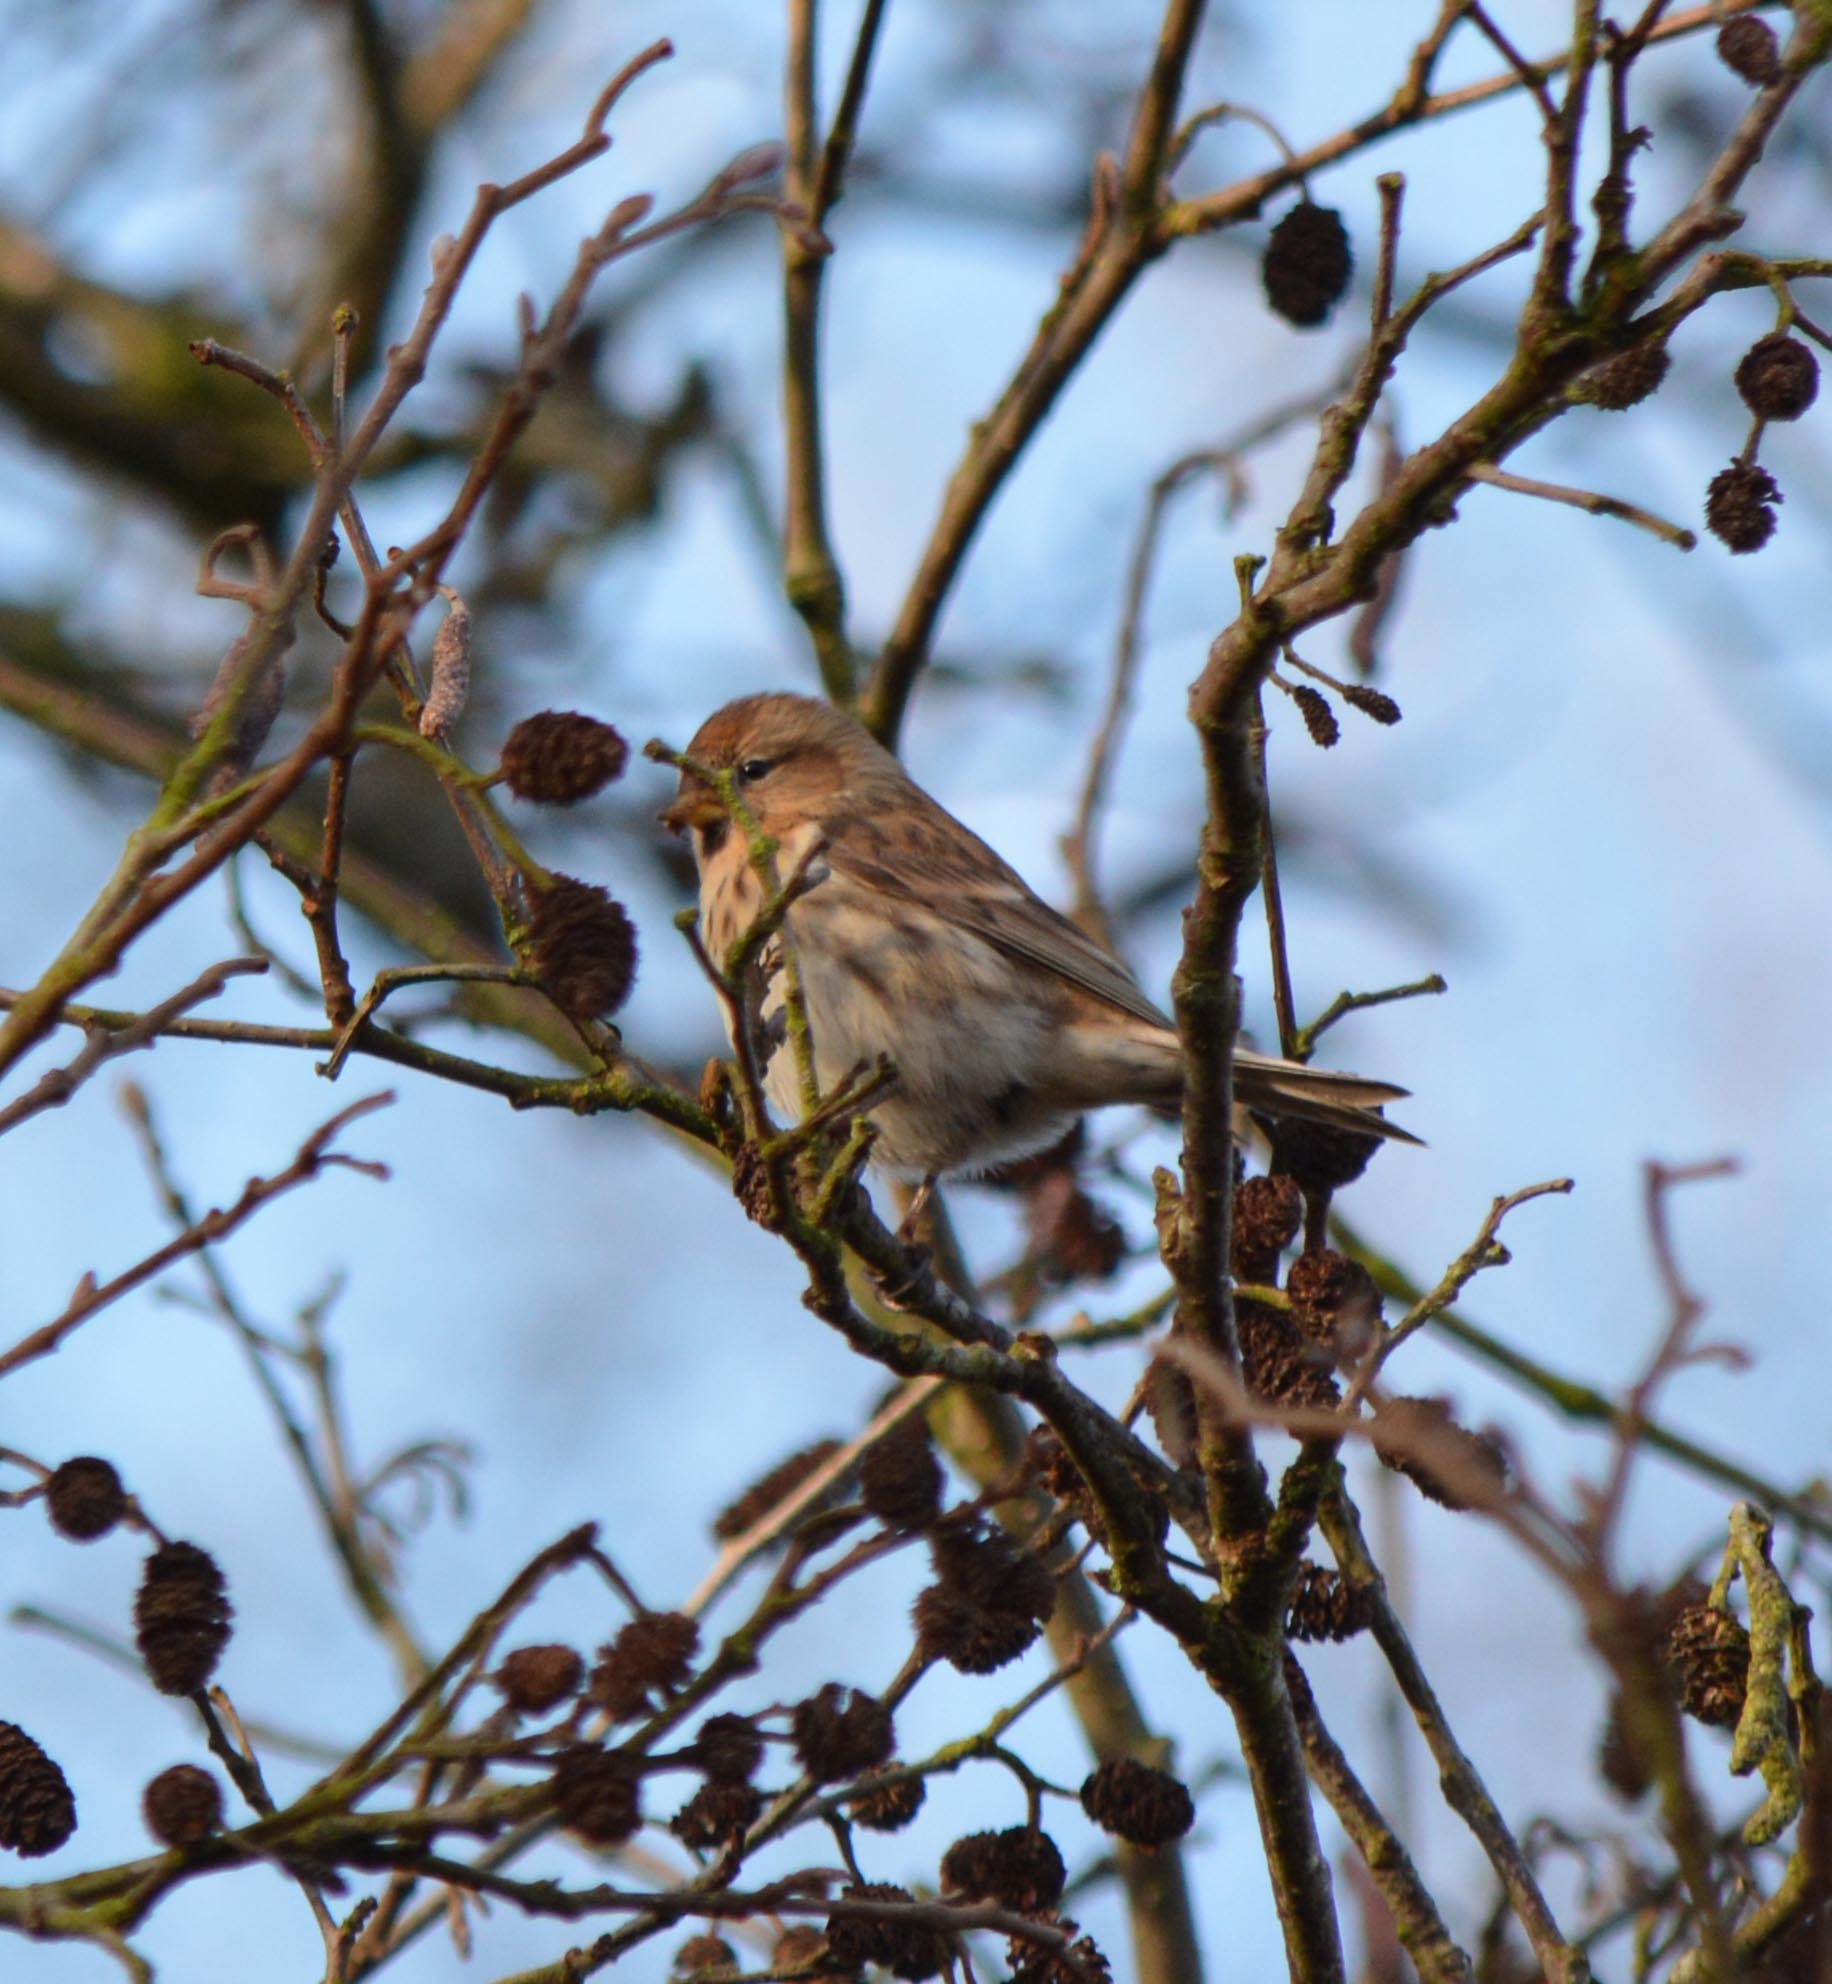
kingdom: Animalia
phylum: Chordata
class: Aves
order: Passeriformes
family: Fringillidae
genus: Acanthis
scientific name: Acanthis flammea
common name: Common redpoll
